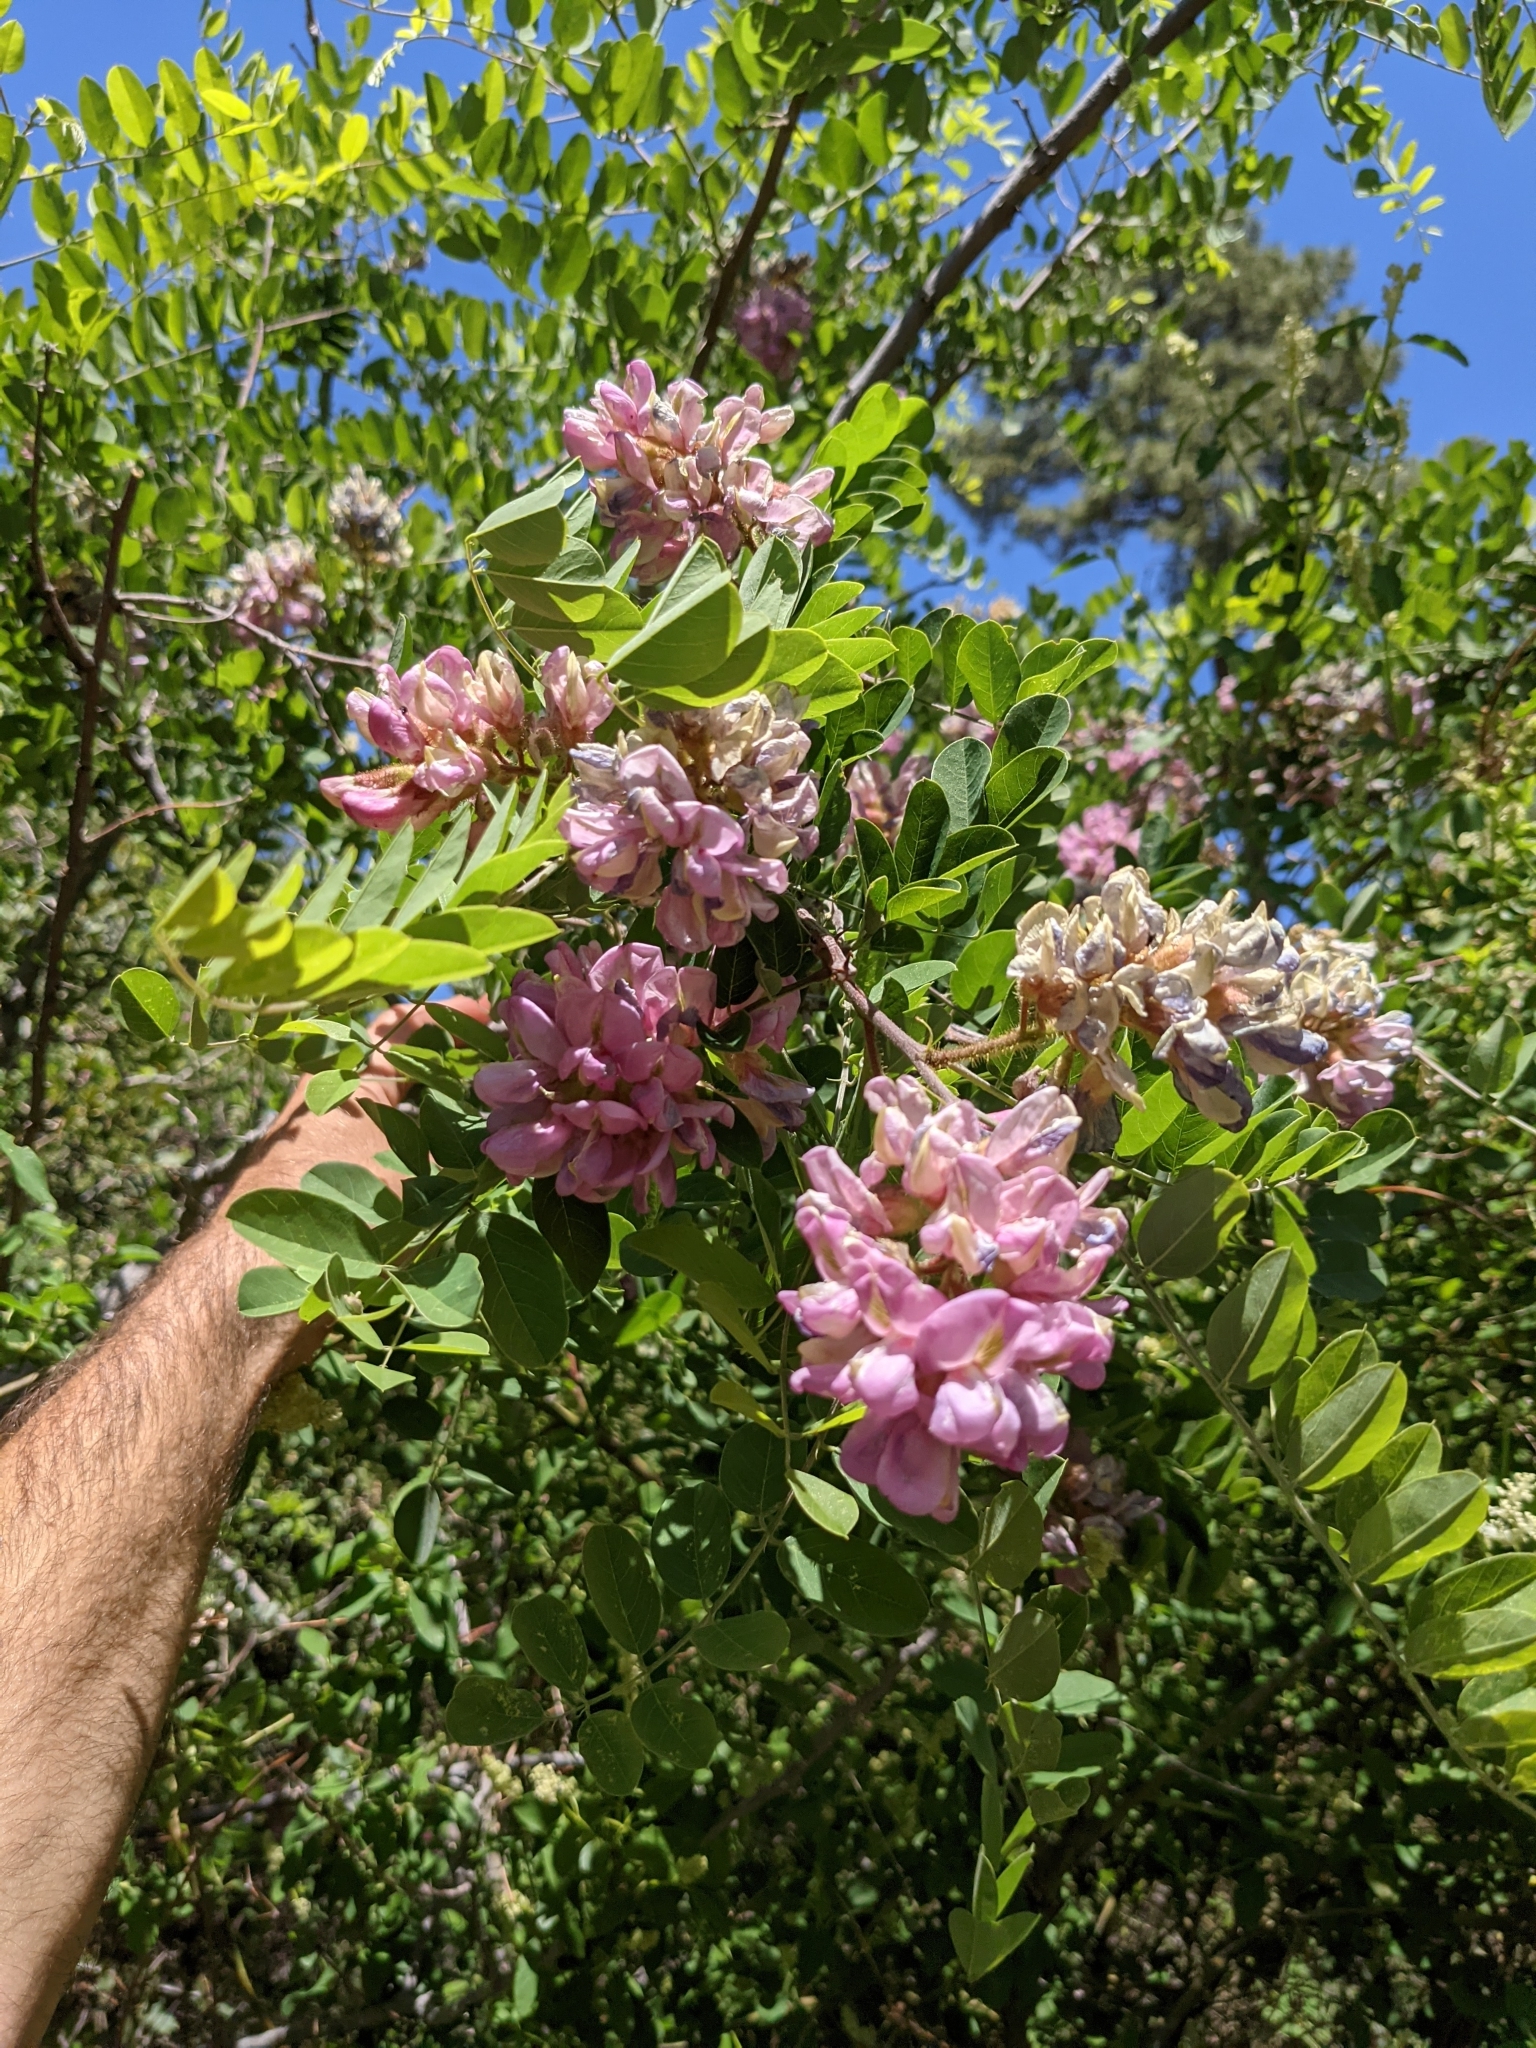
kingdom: Plantae
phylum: Tracheophyta
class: Magnoliopsida
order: Fabales
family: Fabaceae
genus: Robinia
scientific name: Robinia neomexicana
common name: New mexico locust
